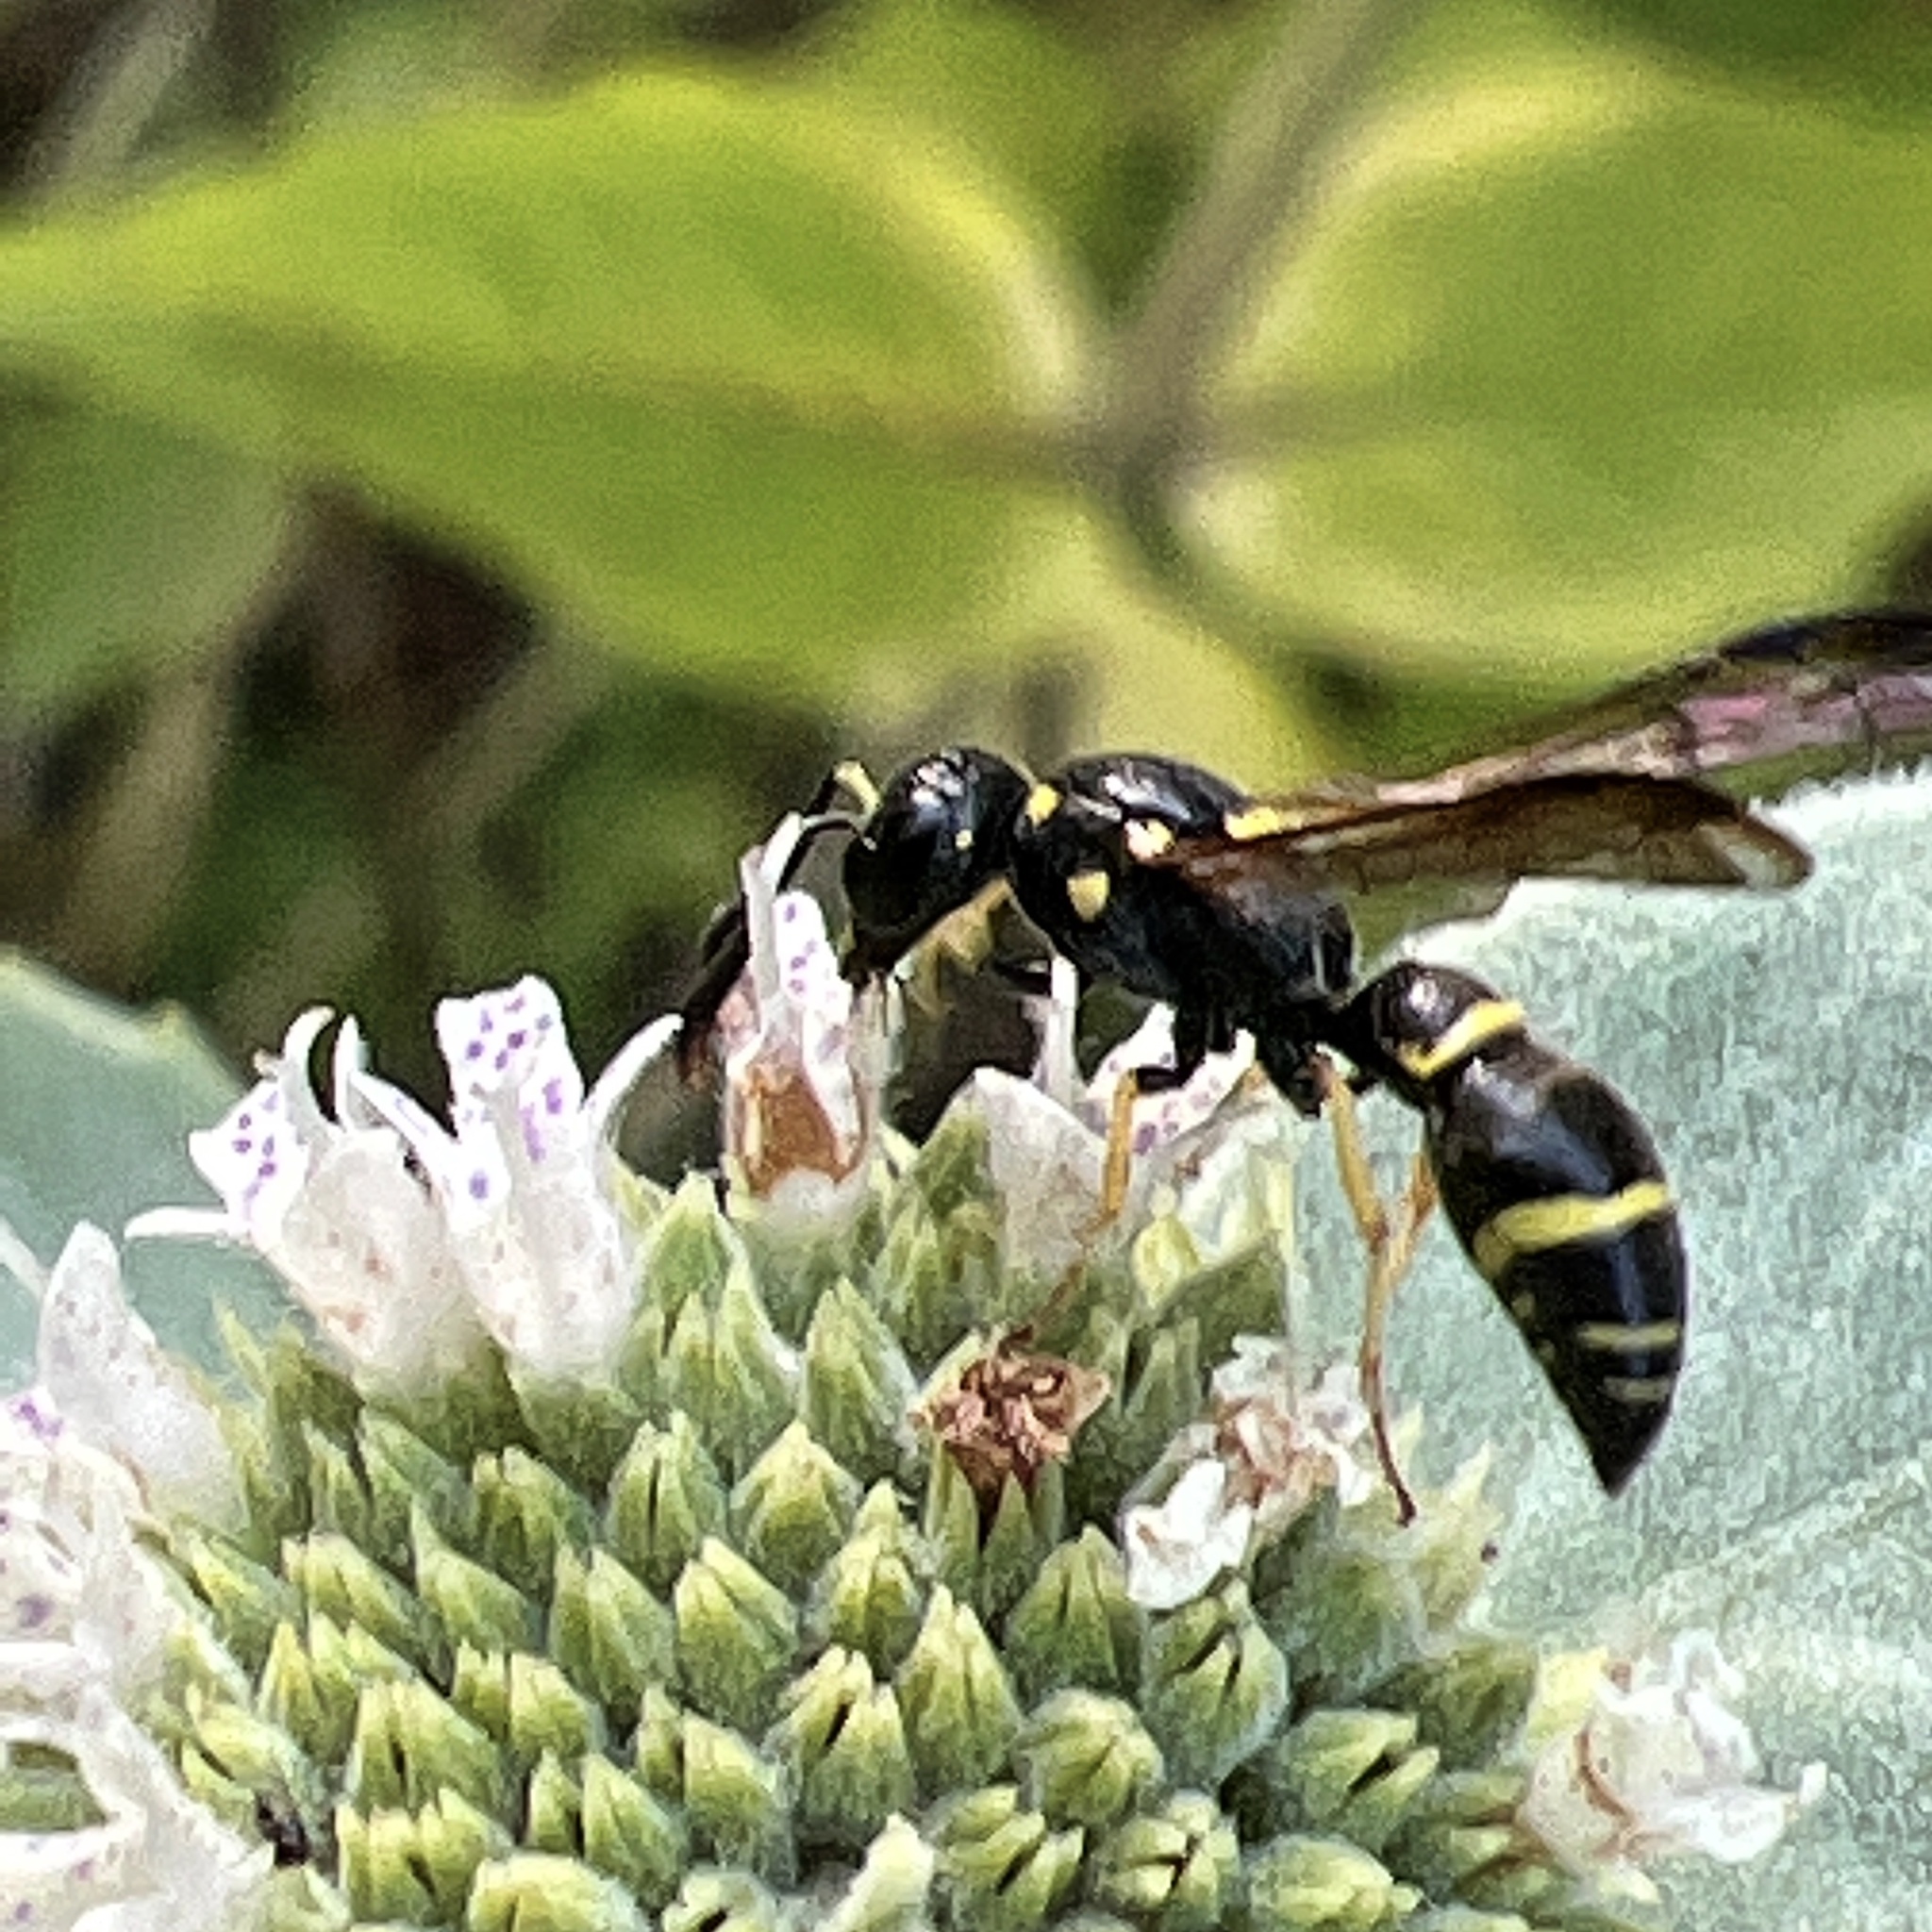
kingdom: Animalia
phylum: Arthropoda
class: Insecta
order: Hymenoptera
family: Eumenidae
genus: Symmorphus
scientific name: Symmorphus
